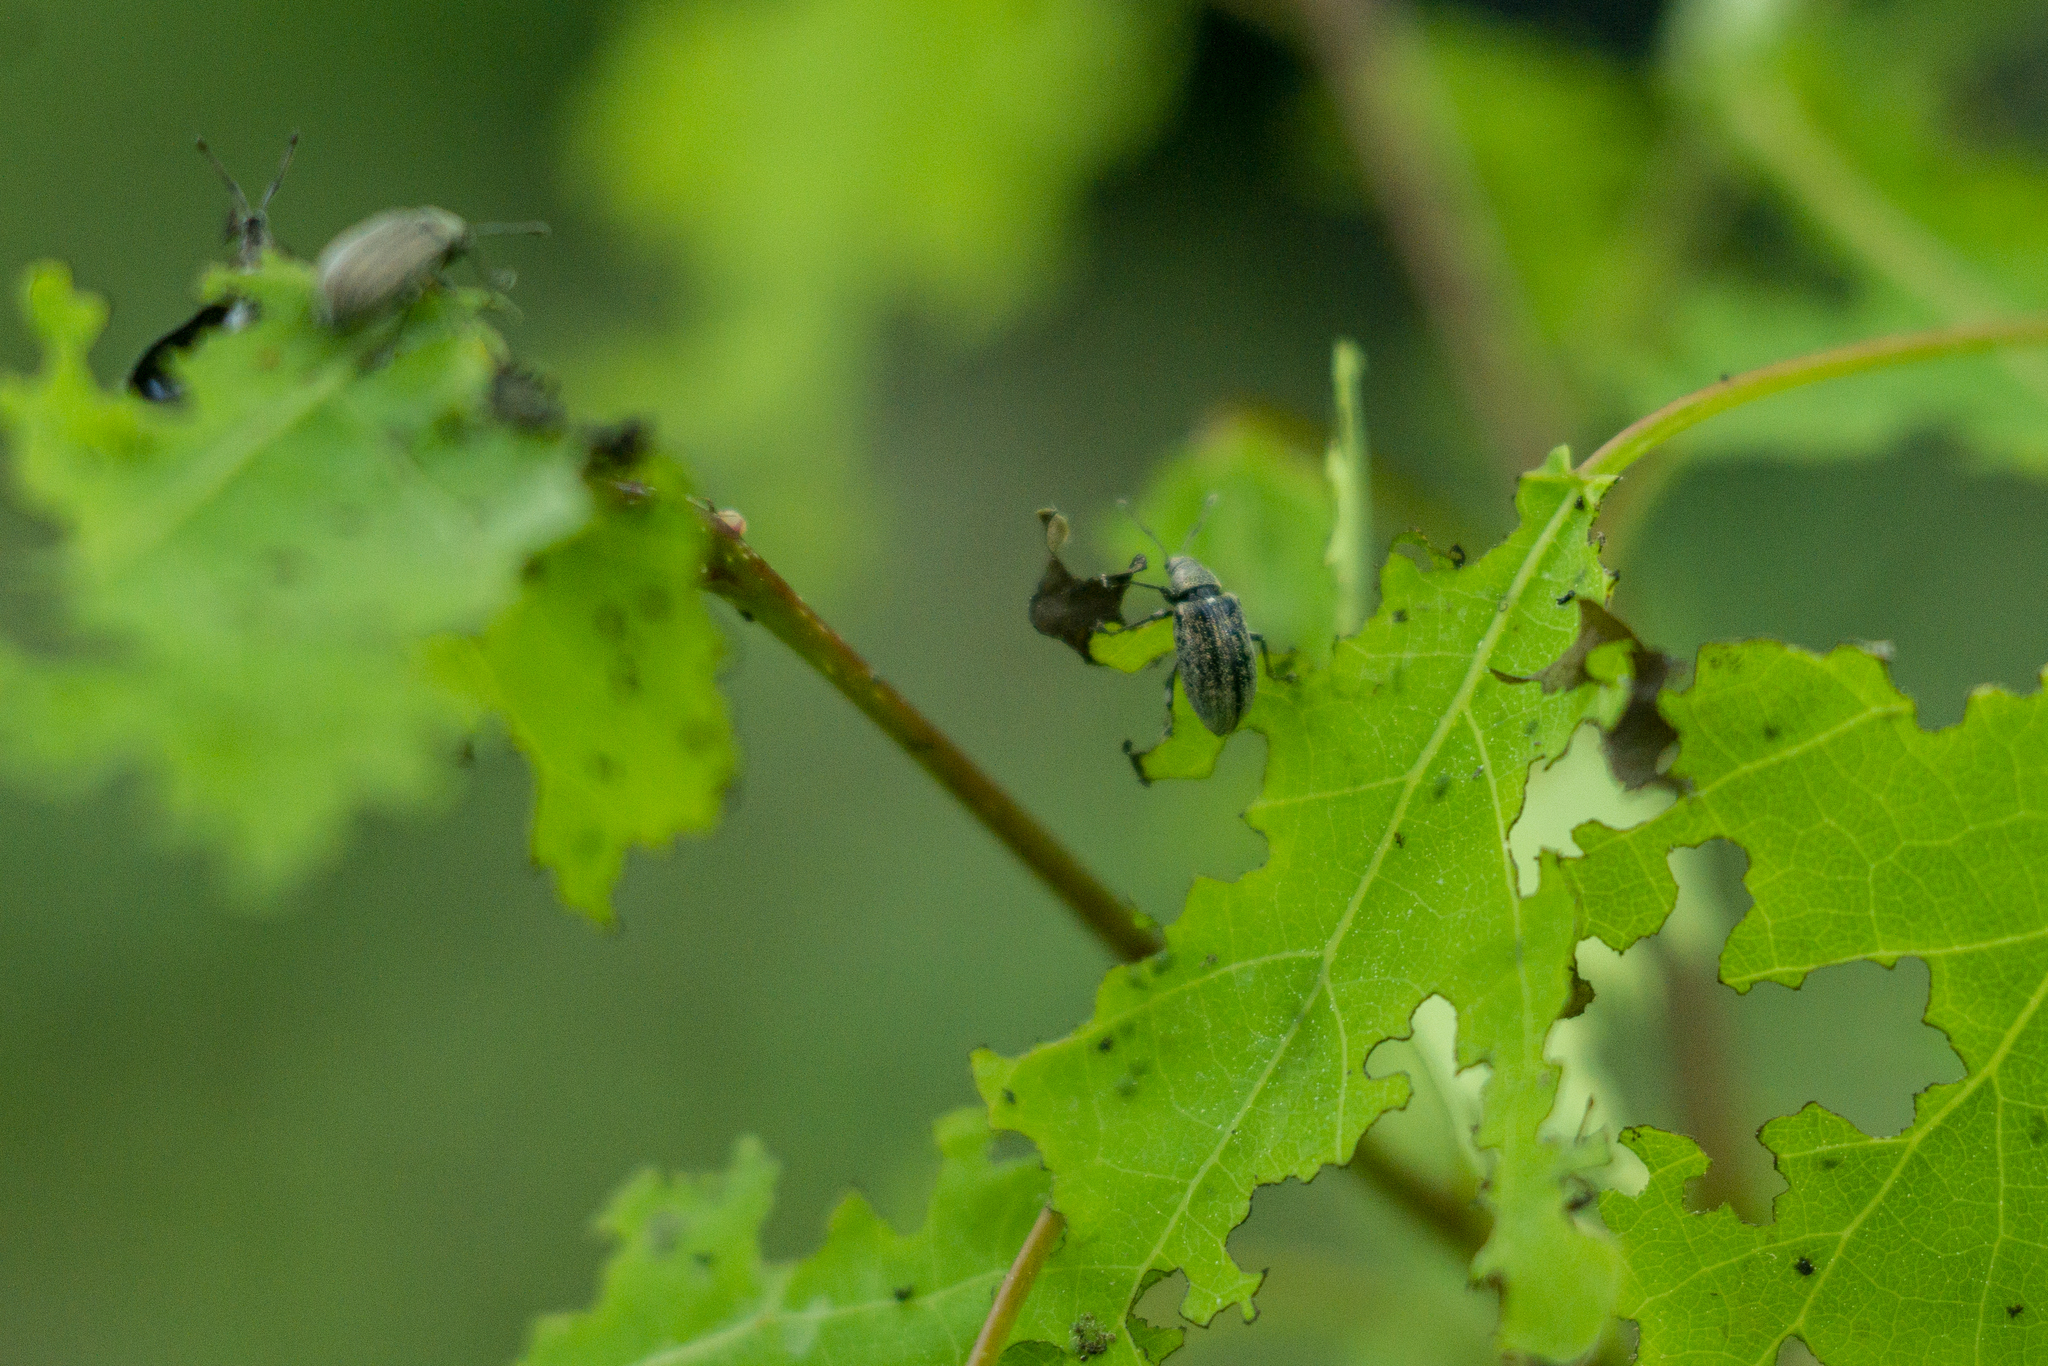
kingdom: Animalia
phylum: Arthropoda
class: Insecta
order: Coleoptera
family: Curculionidae
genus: Phyllobius
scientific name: Phyllobius pyri
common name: Common leaf weevil
